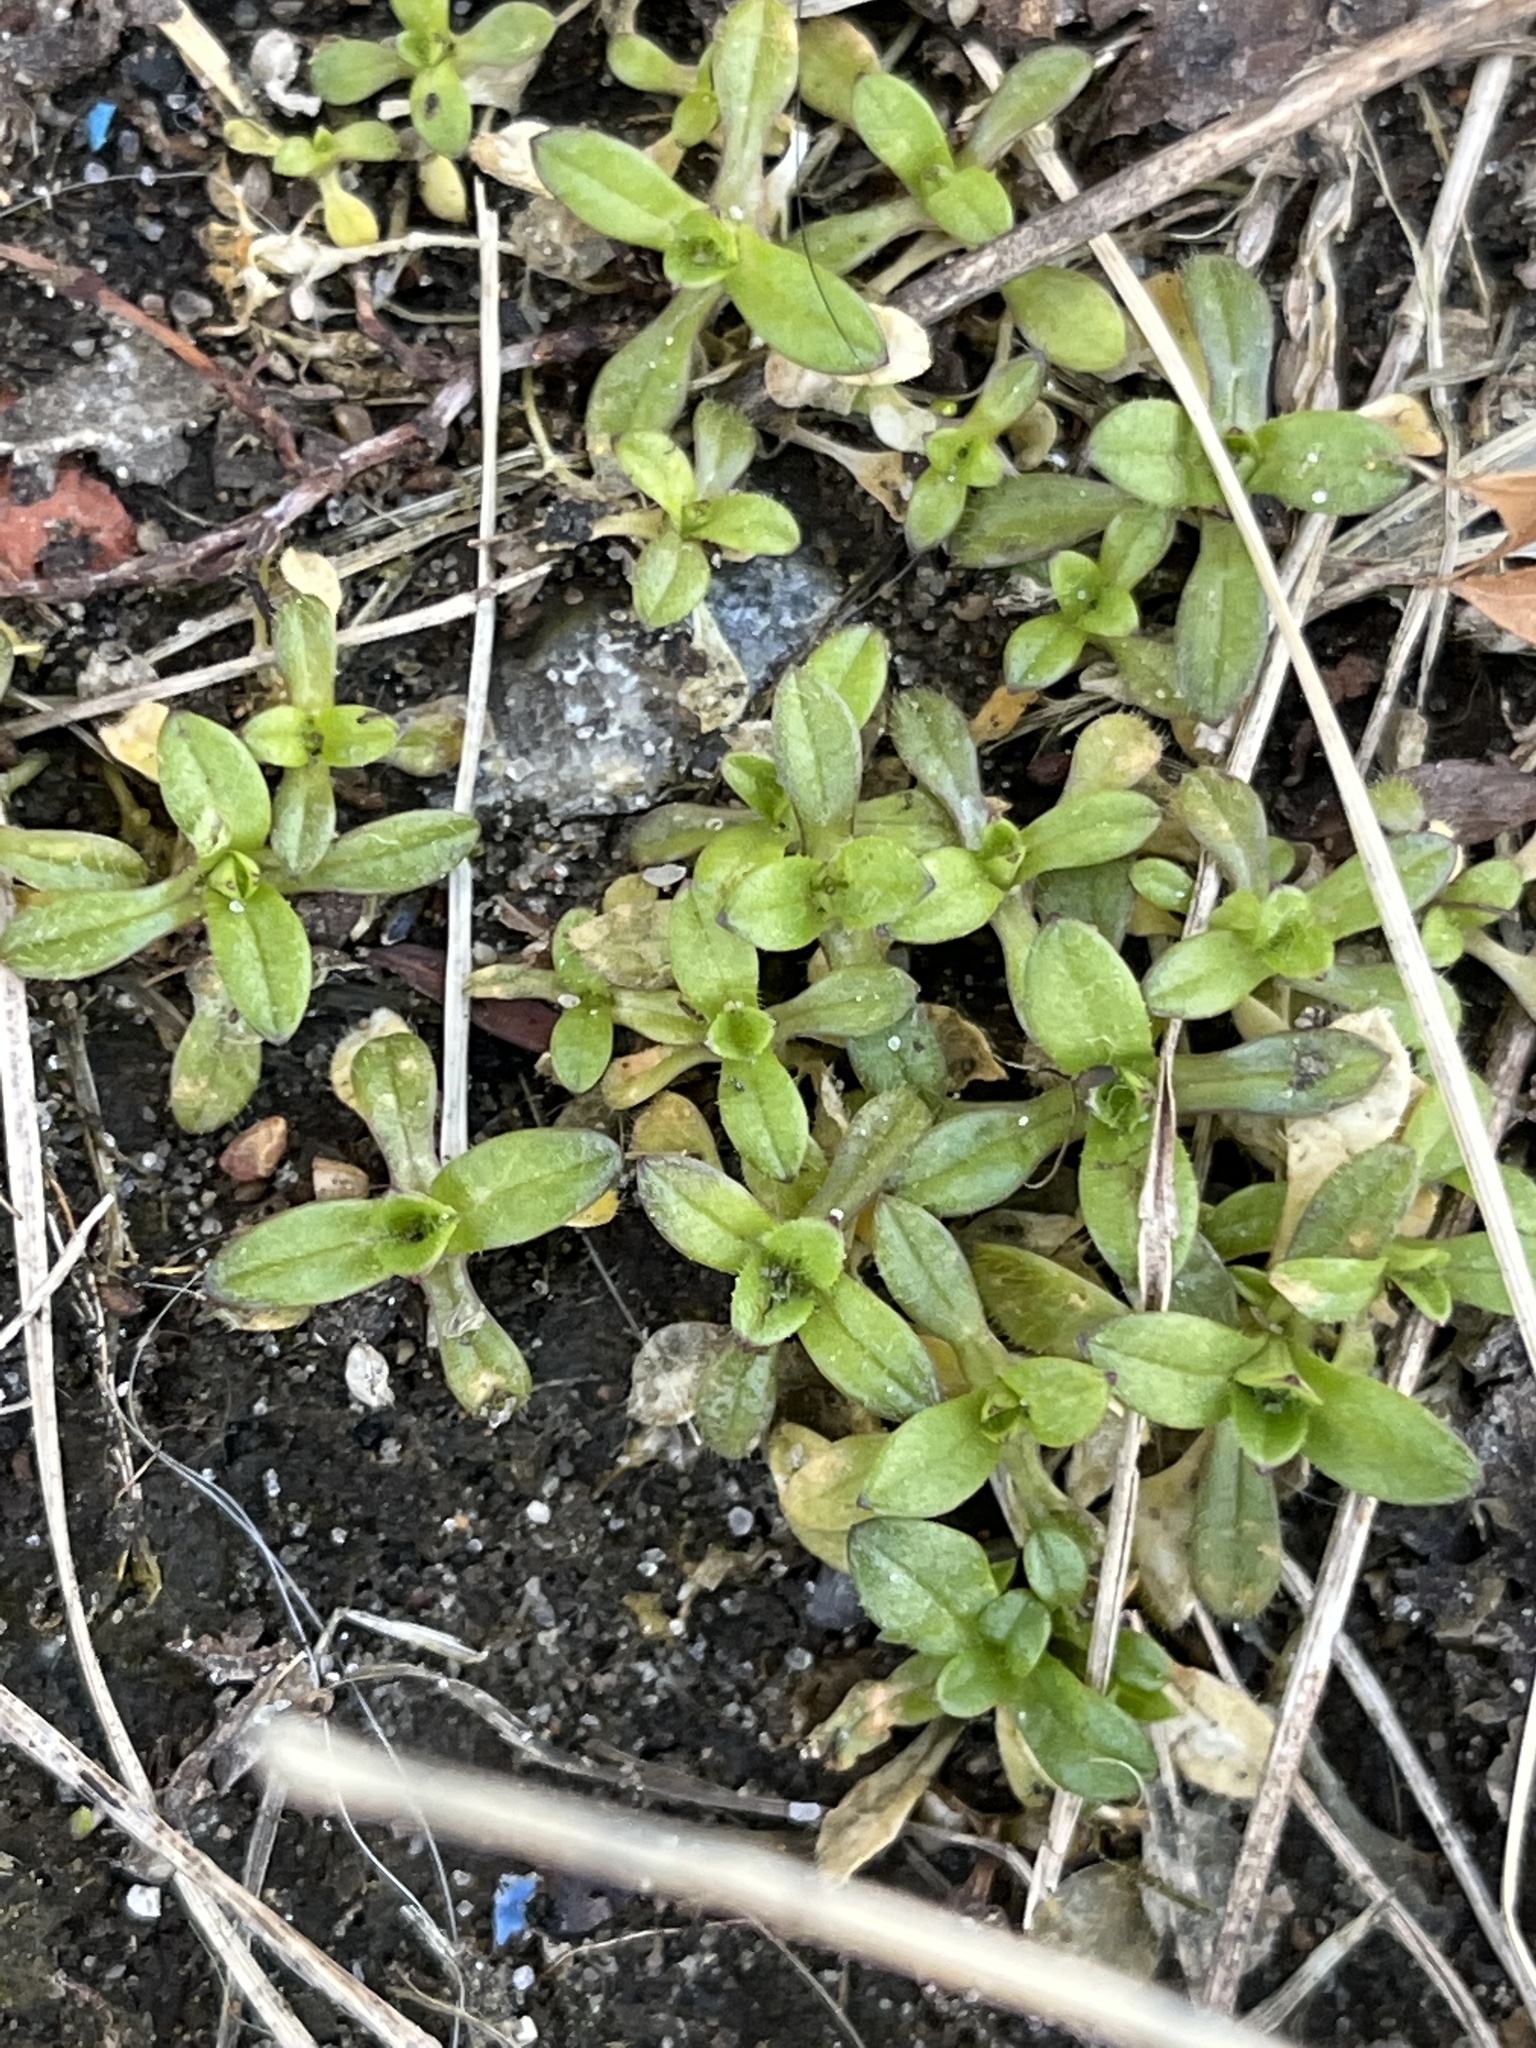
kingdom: Plantae
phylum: Tracheophyta
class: Magnoliopsida
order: Caryophyllales
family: Caryophyllaceae
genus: Cerastium
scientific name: Cerastium fontanum
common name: Common mouse-ear
